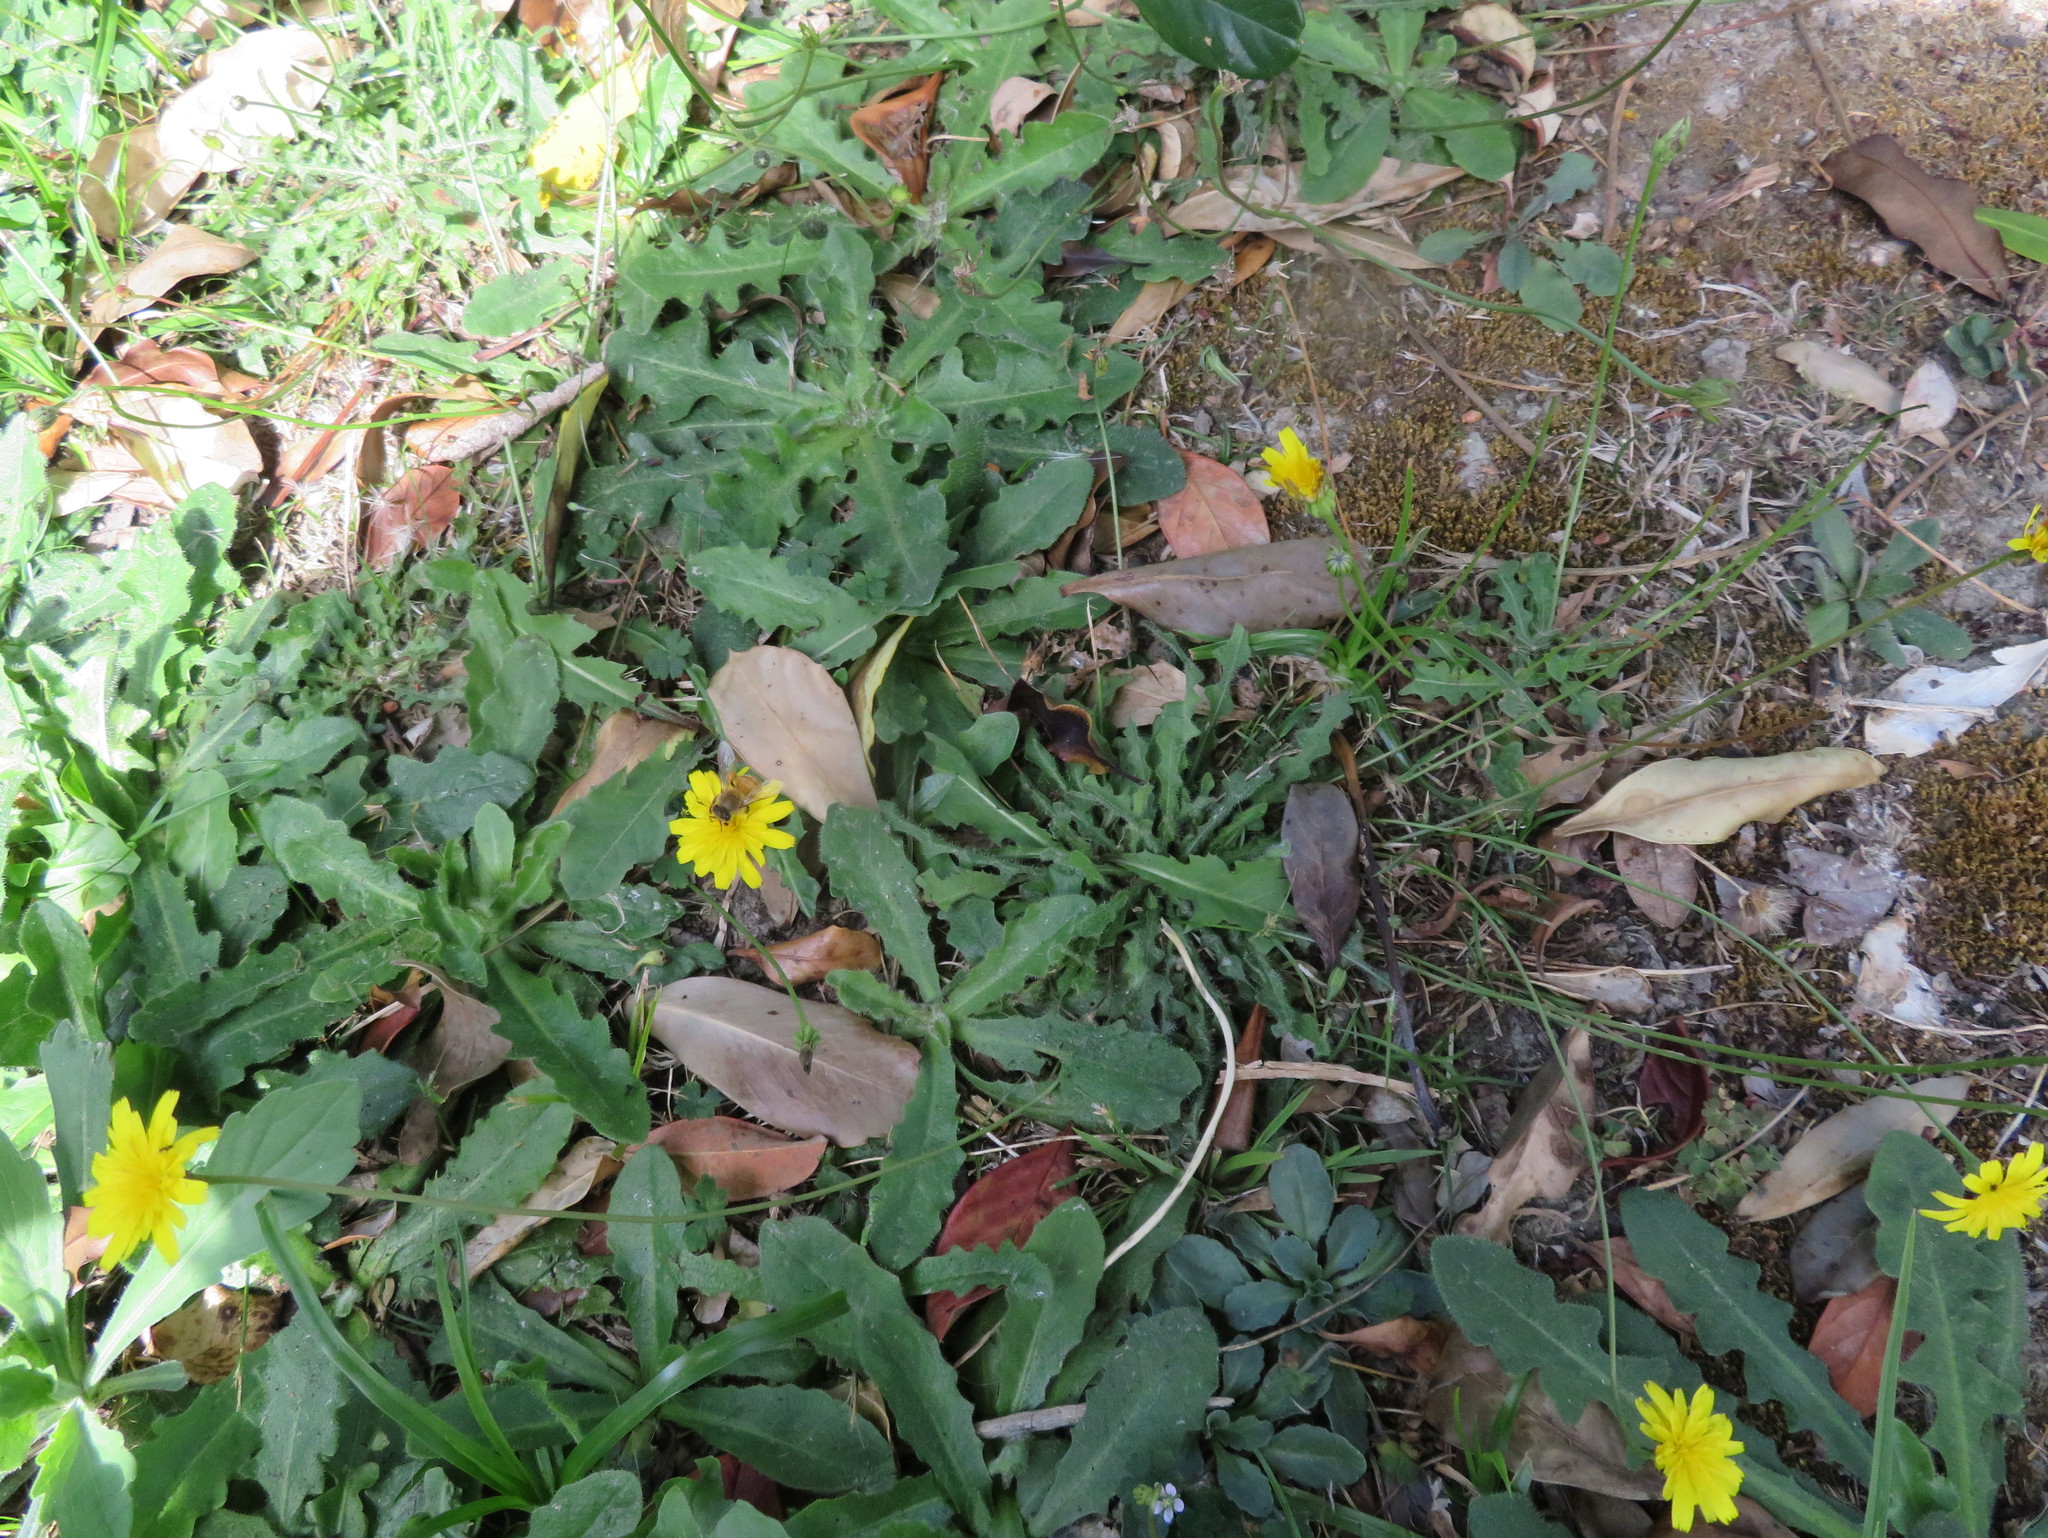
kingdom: Animalia
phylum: Arthropoda
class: Insecta
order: Hymenoptera
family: Apidae
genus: Apis
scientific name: Apis mellifera
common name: Honey bee
